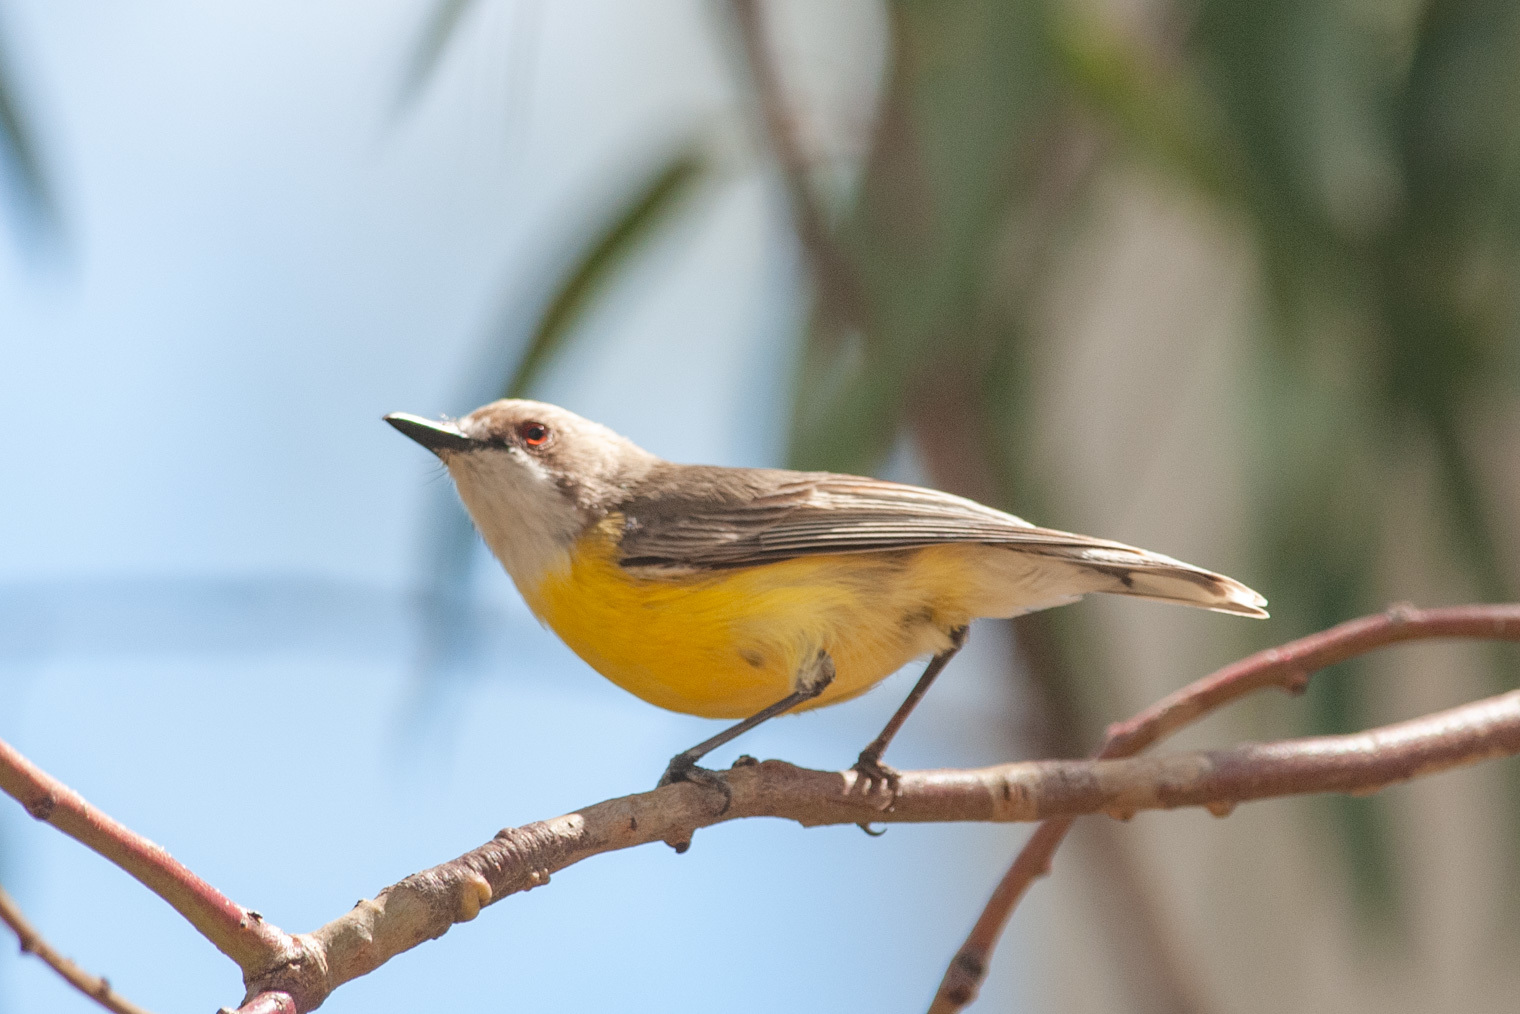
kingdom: Animalia
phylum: Chordata
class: Aves
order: Passeriformes
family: Acanthizidae
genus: Gerygone
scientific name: Gerygone olivacea
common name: White-throated gerygone
